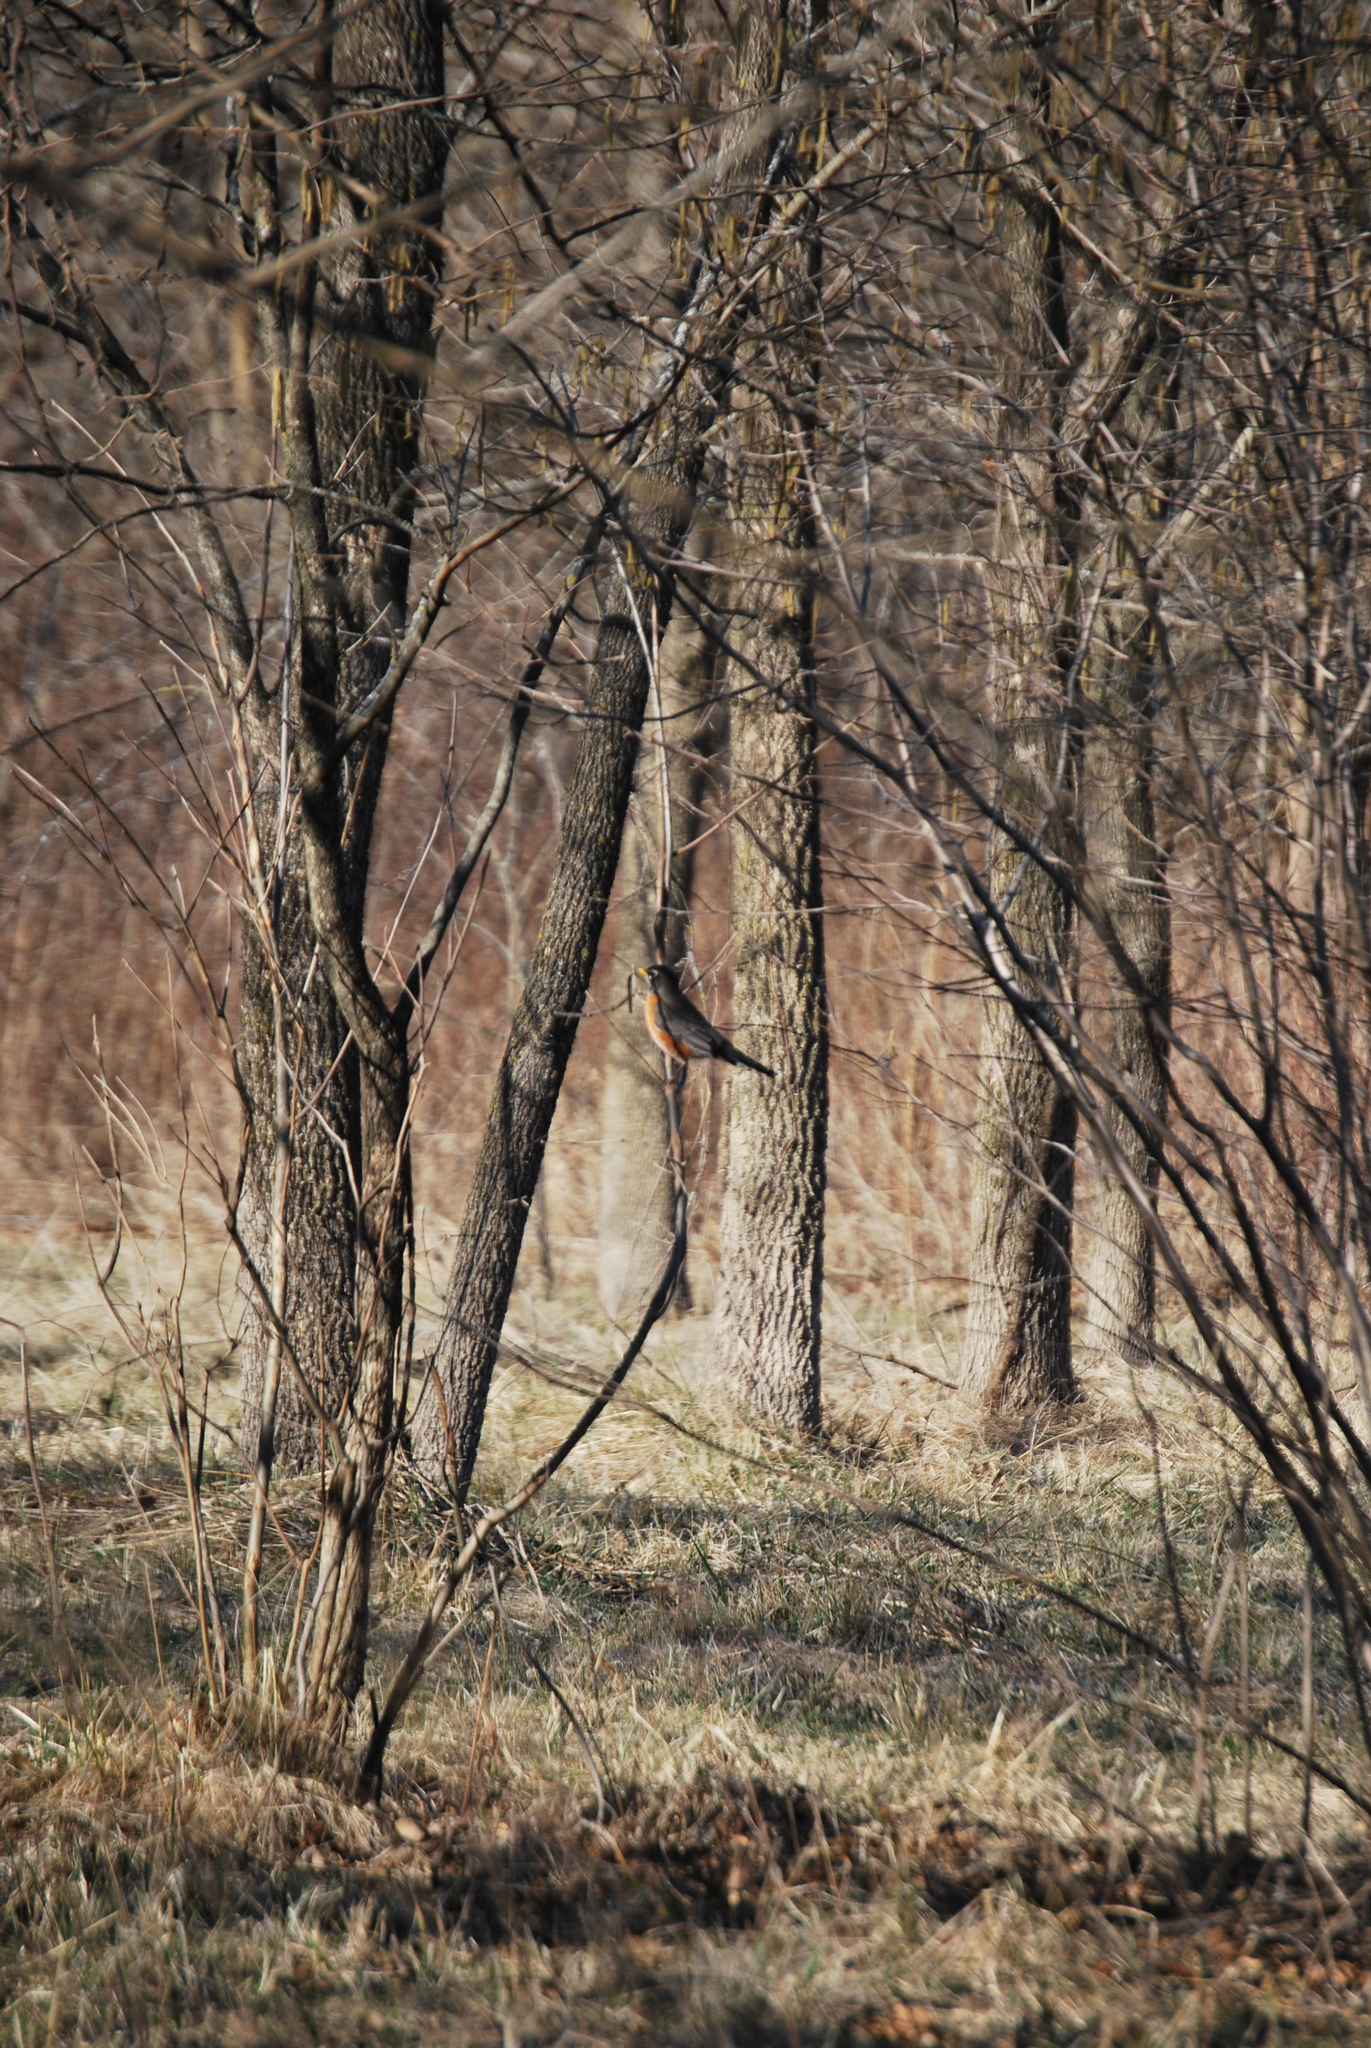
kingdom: Animalia
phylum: Chordata
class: Aves
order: Passeriformes
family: Turdidae
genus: Turdus
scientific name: Turdus migratorius
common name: American robin
